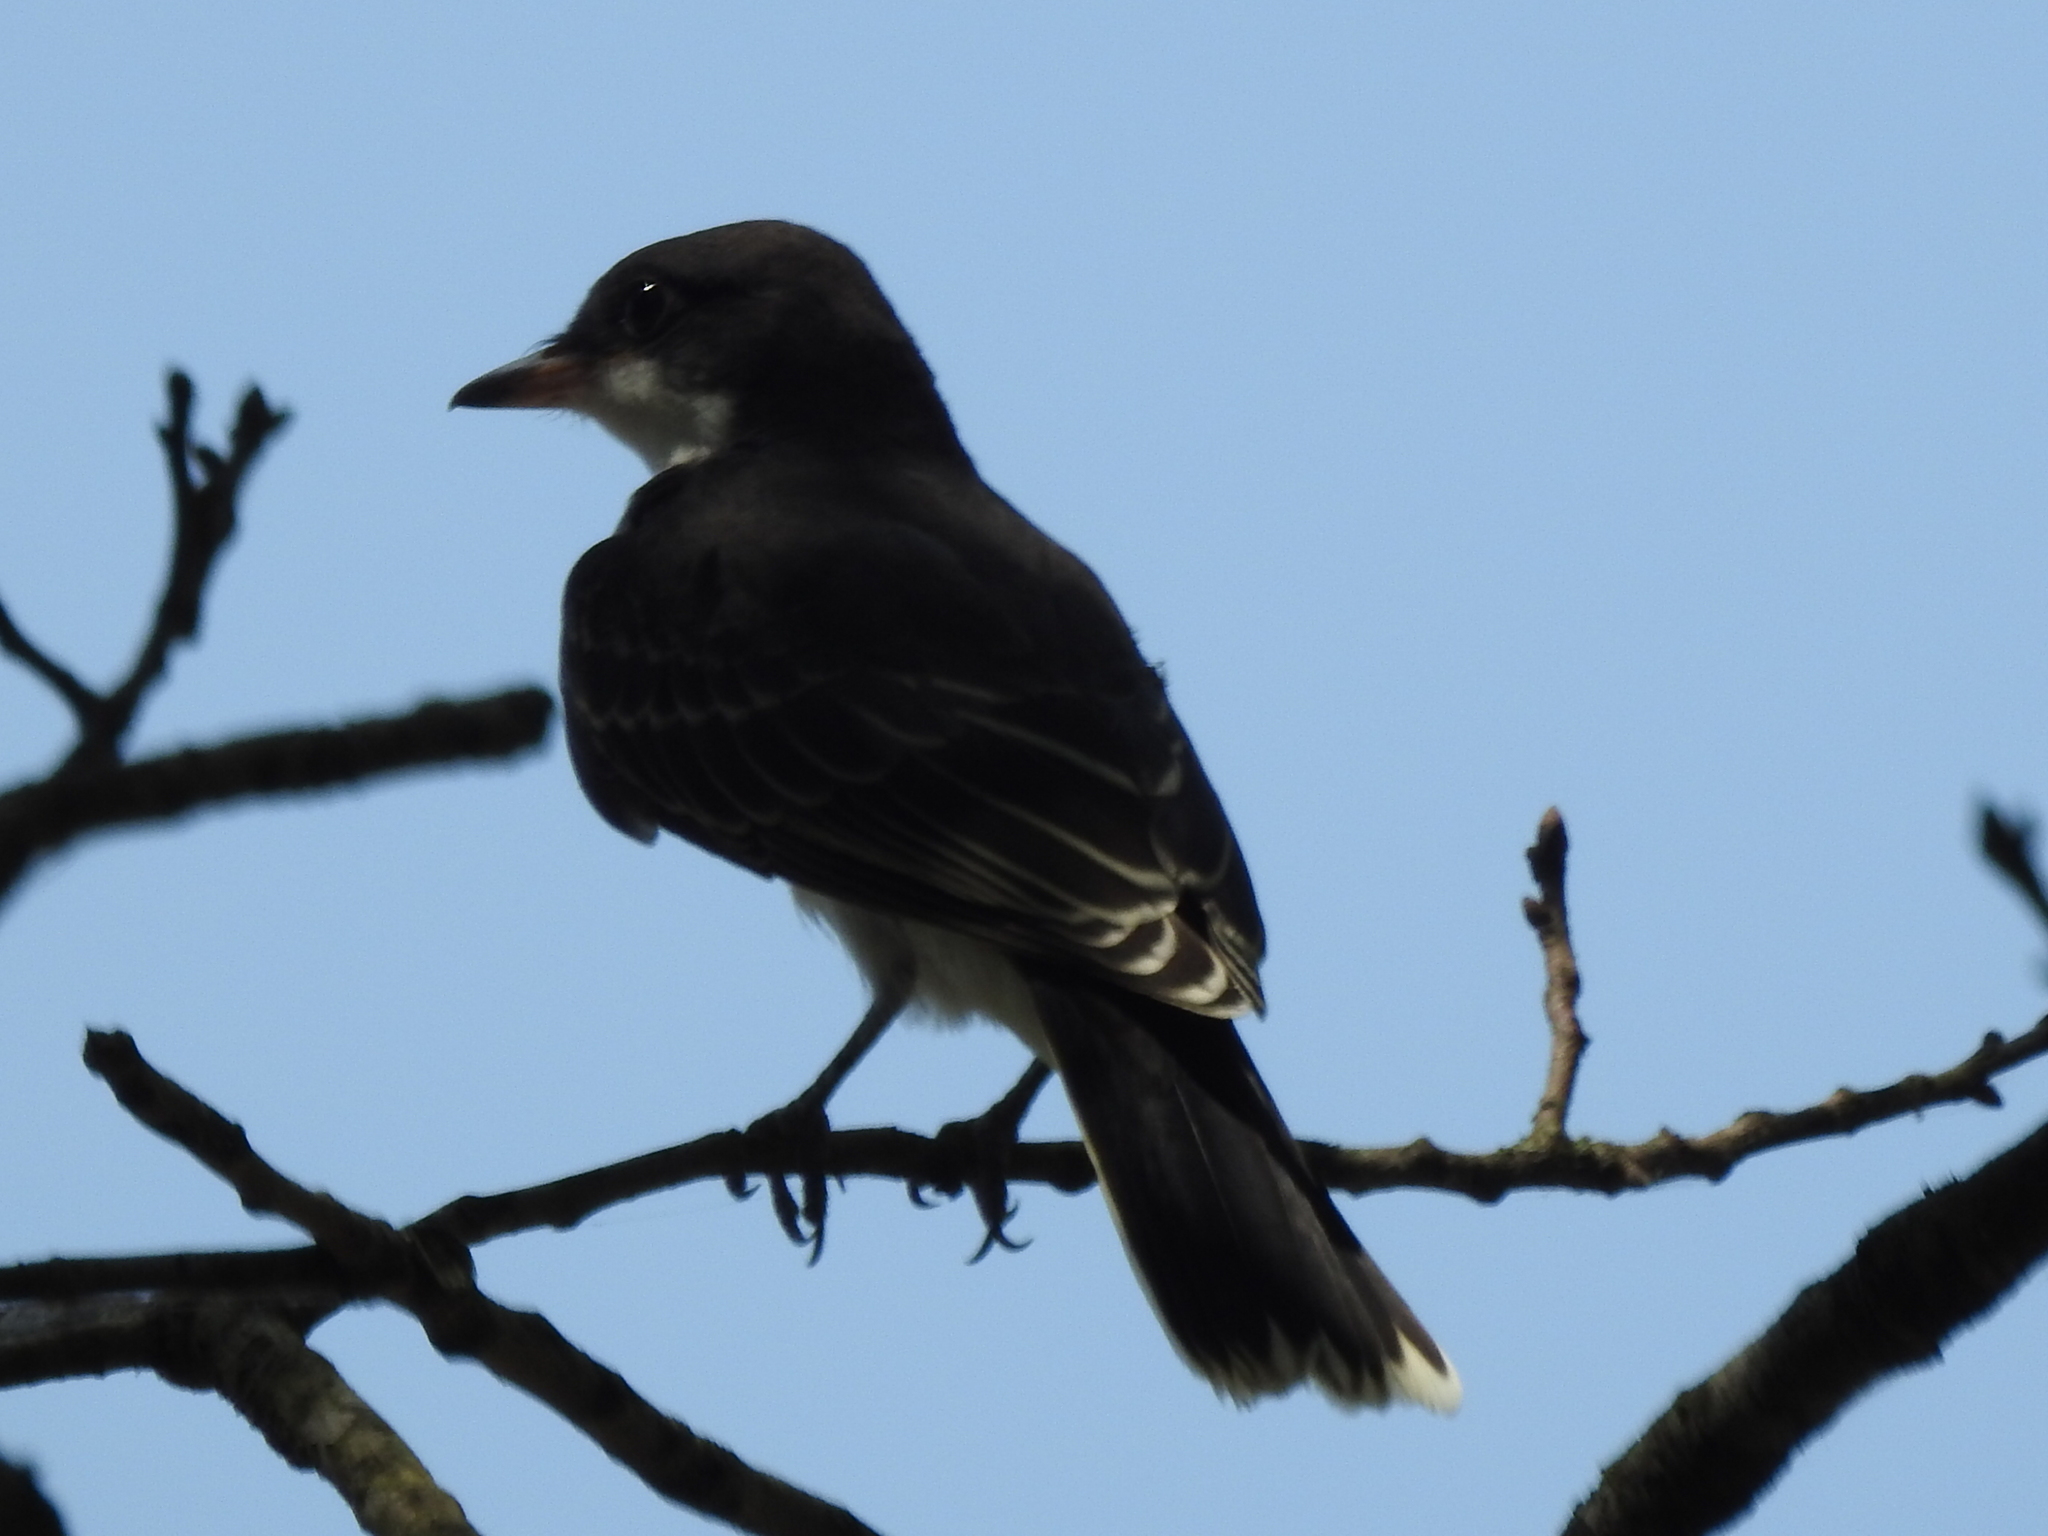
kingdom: Animalia
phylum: Chordata
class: Aves
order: Passeriformes
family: Tyrannidae
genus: Tyrannus
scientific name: Tyrannus tyrannus
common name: Eastern kingbird
